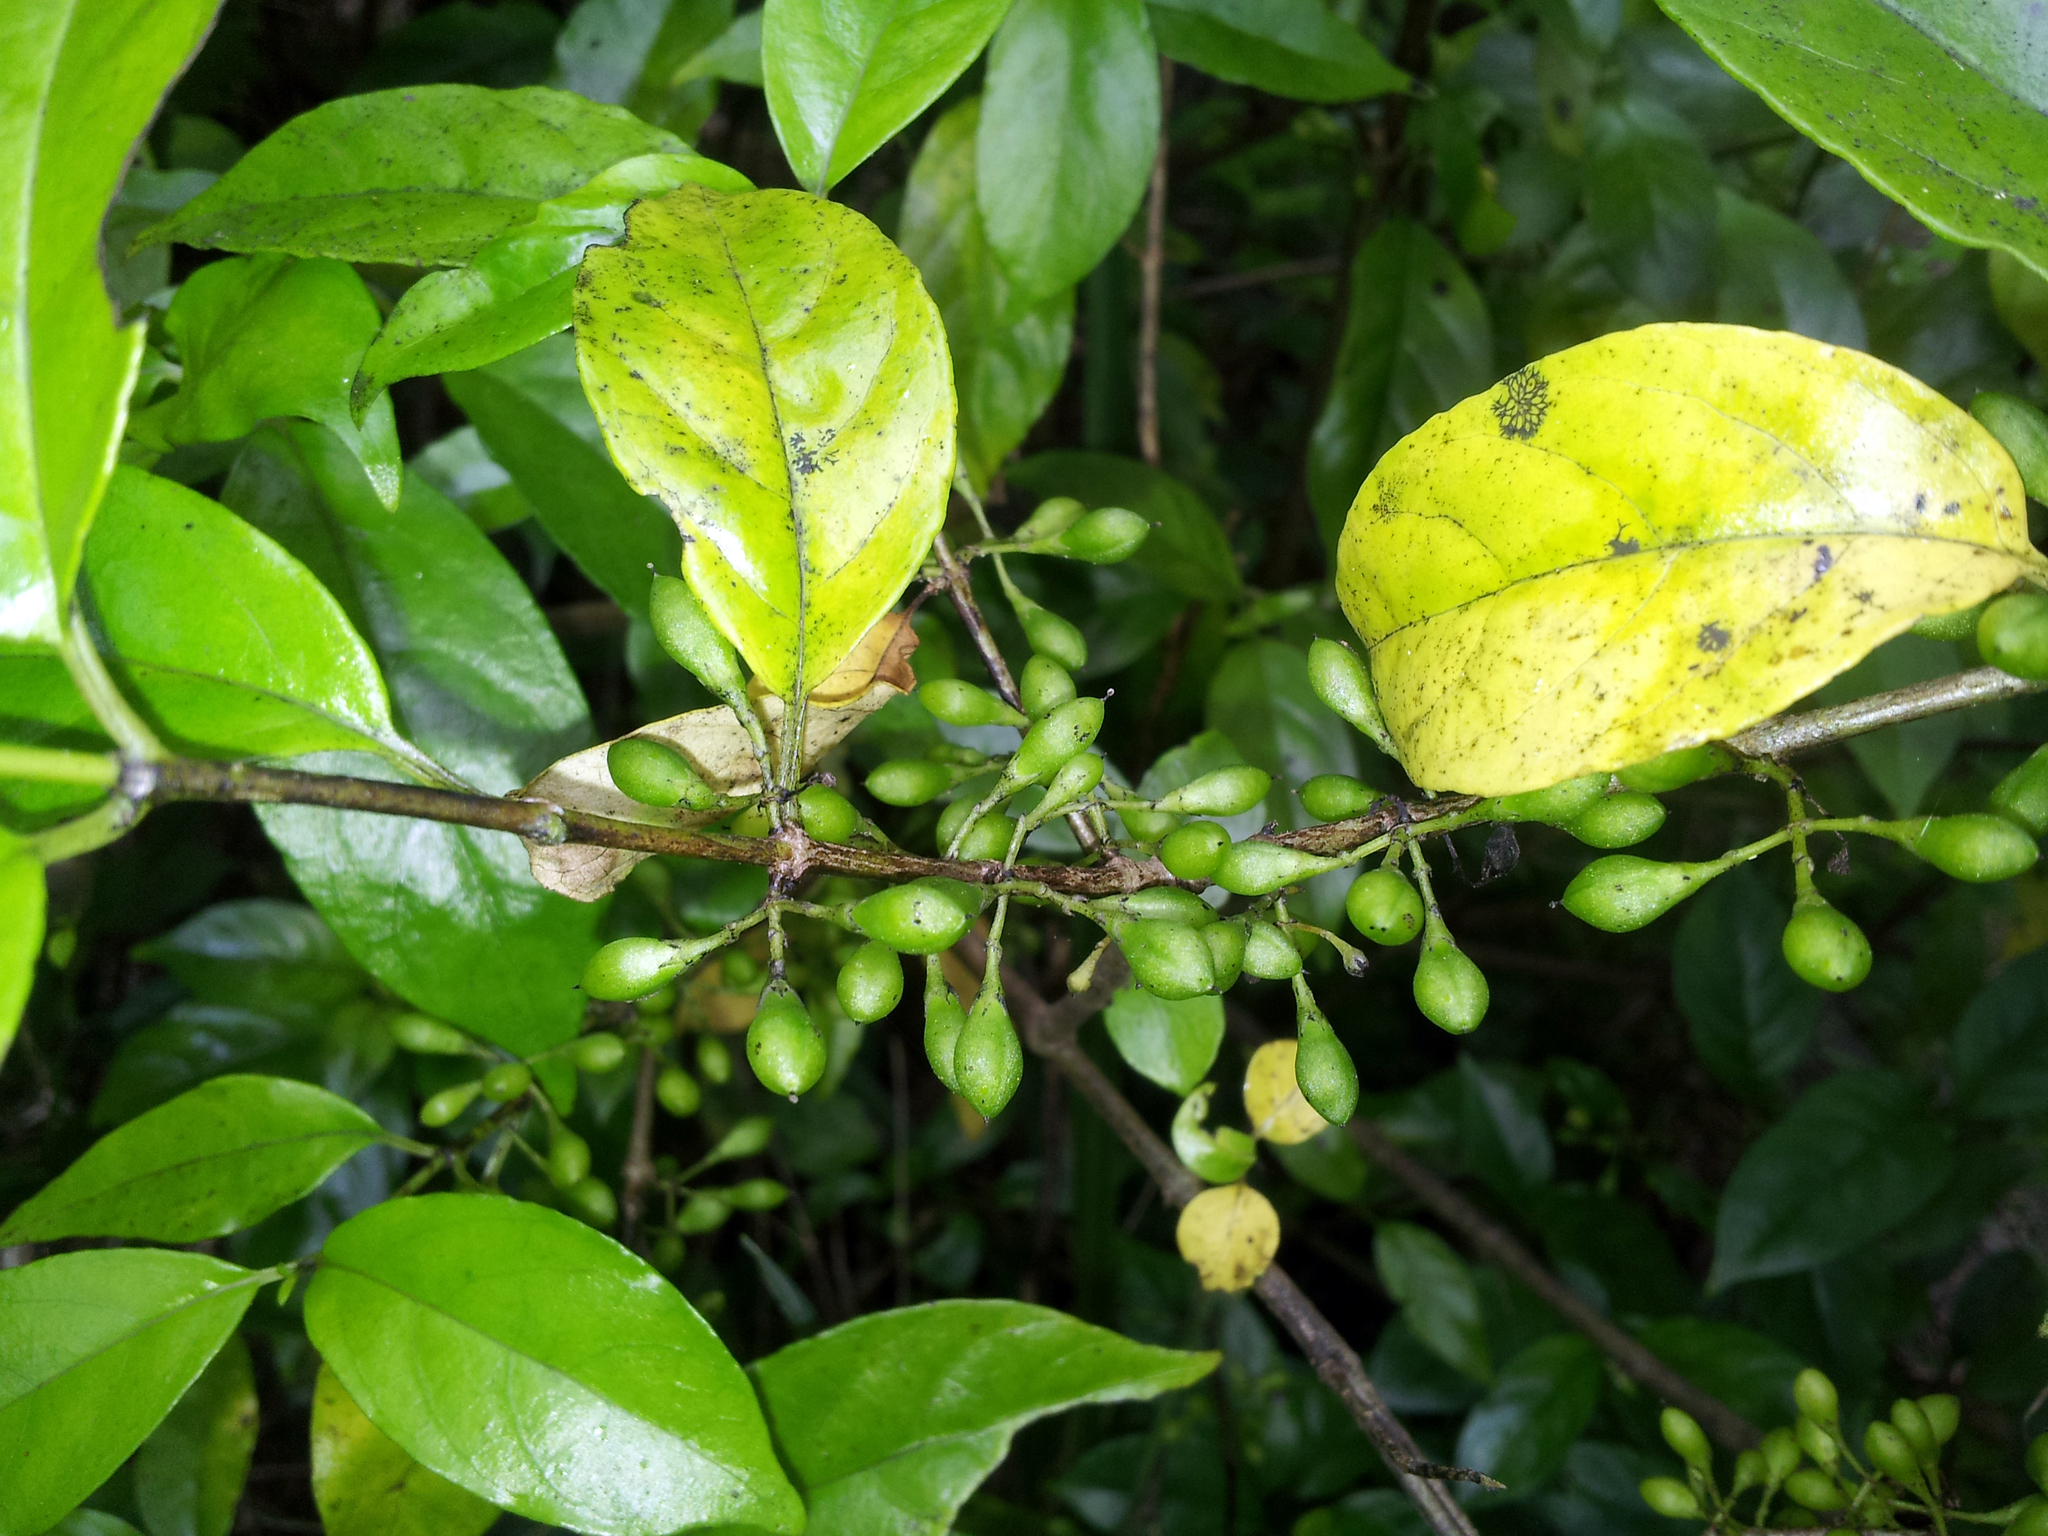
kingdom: Plantae
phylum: Tracheophyta
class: Magnoliopsida
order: Gentianales
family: Loganiaceae
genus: Geniostoma
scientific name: Geniostoma ligustrifolium
